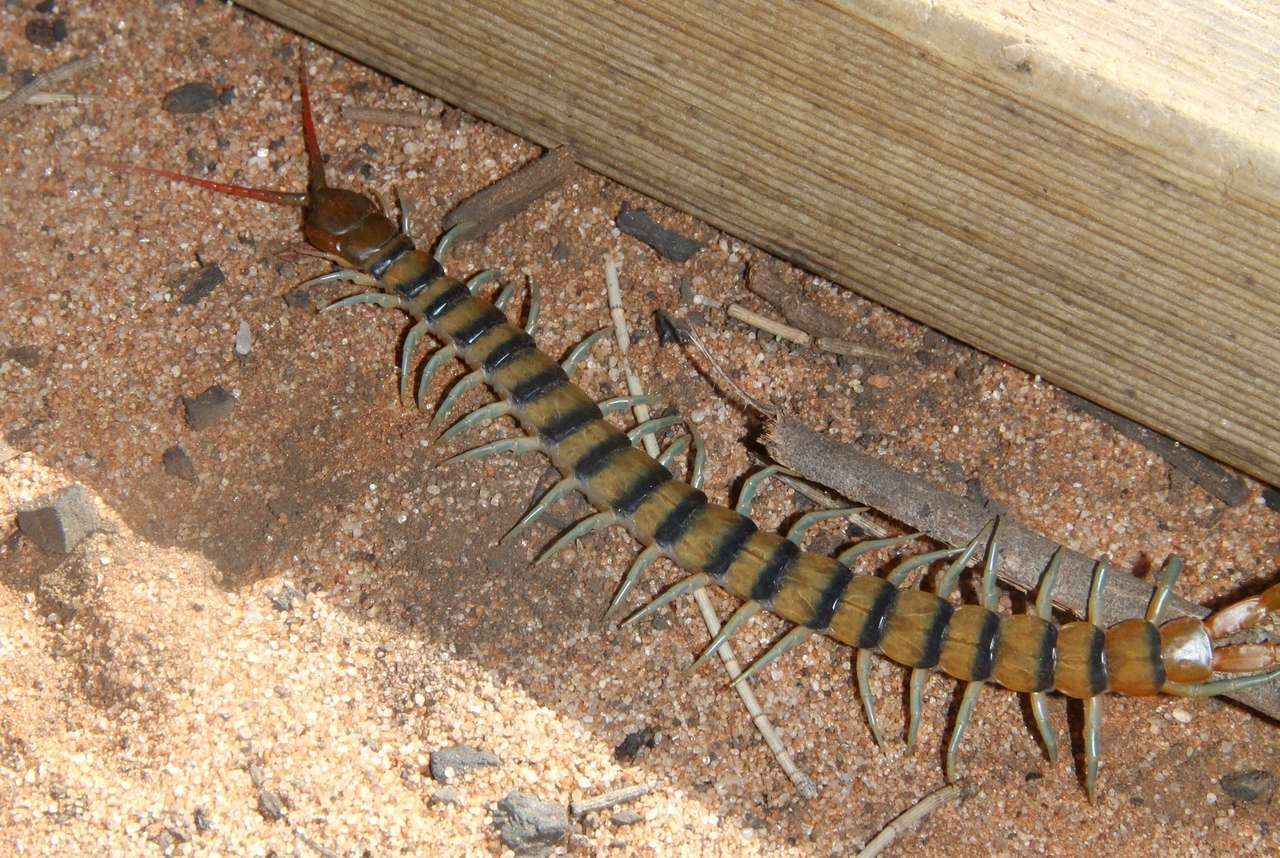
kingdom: Animalia
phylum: Arthropoda
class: Chilopoda
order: Scolopendromorpha
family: Scolopendridae
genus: Scolopendra
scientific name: Scolopendra morsitans
